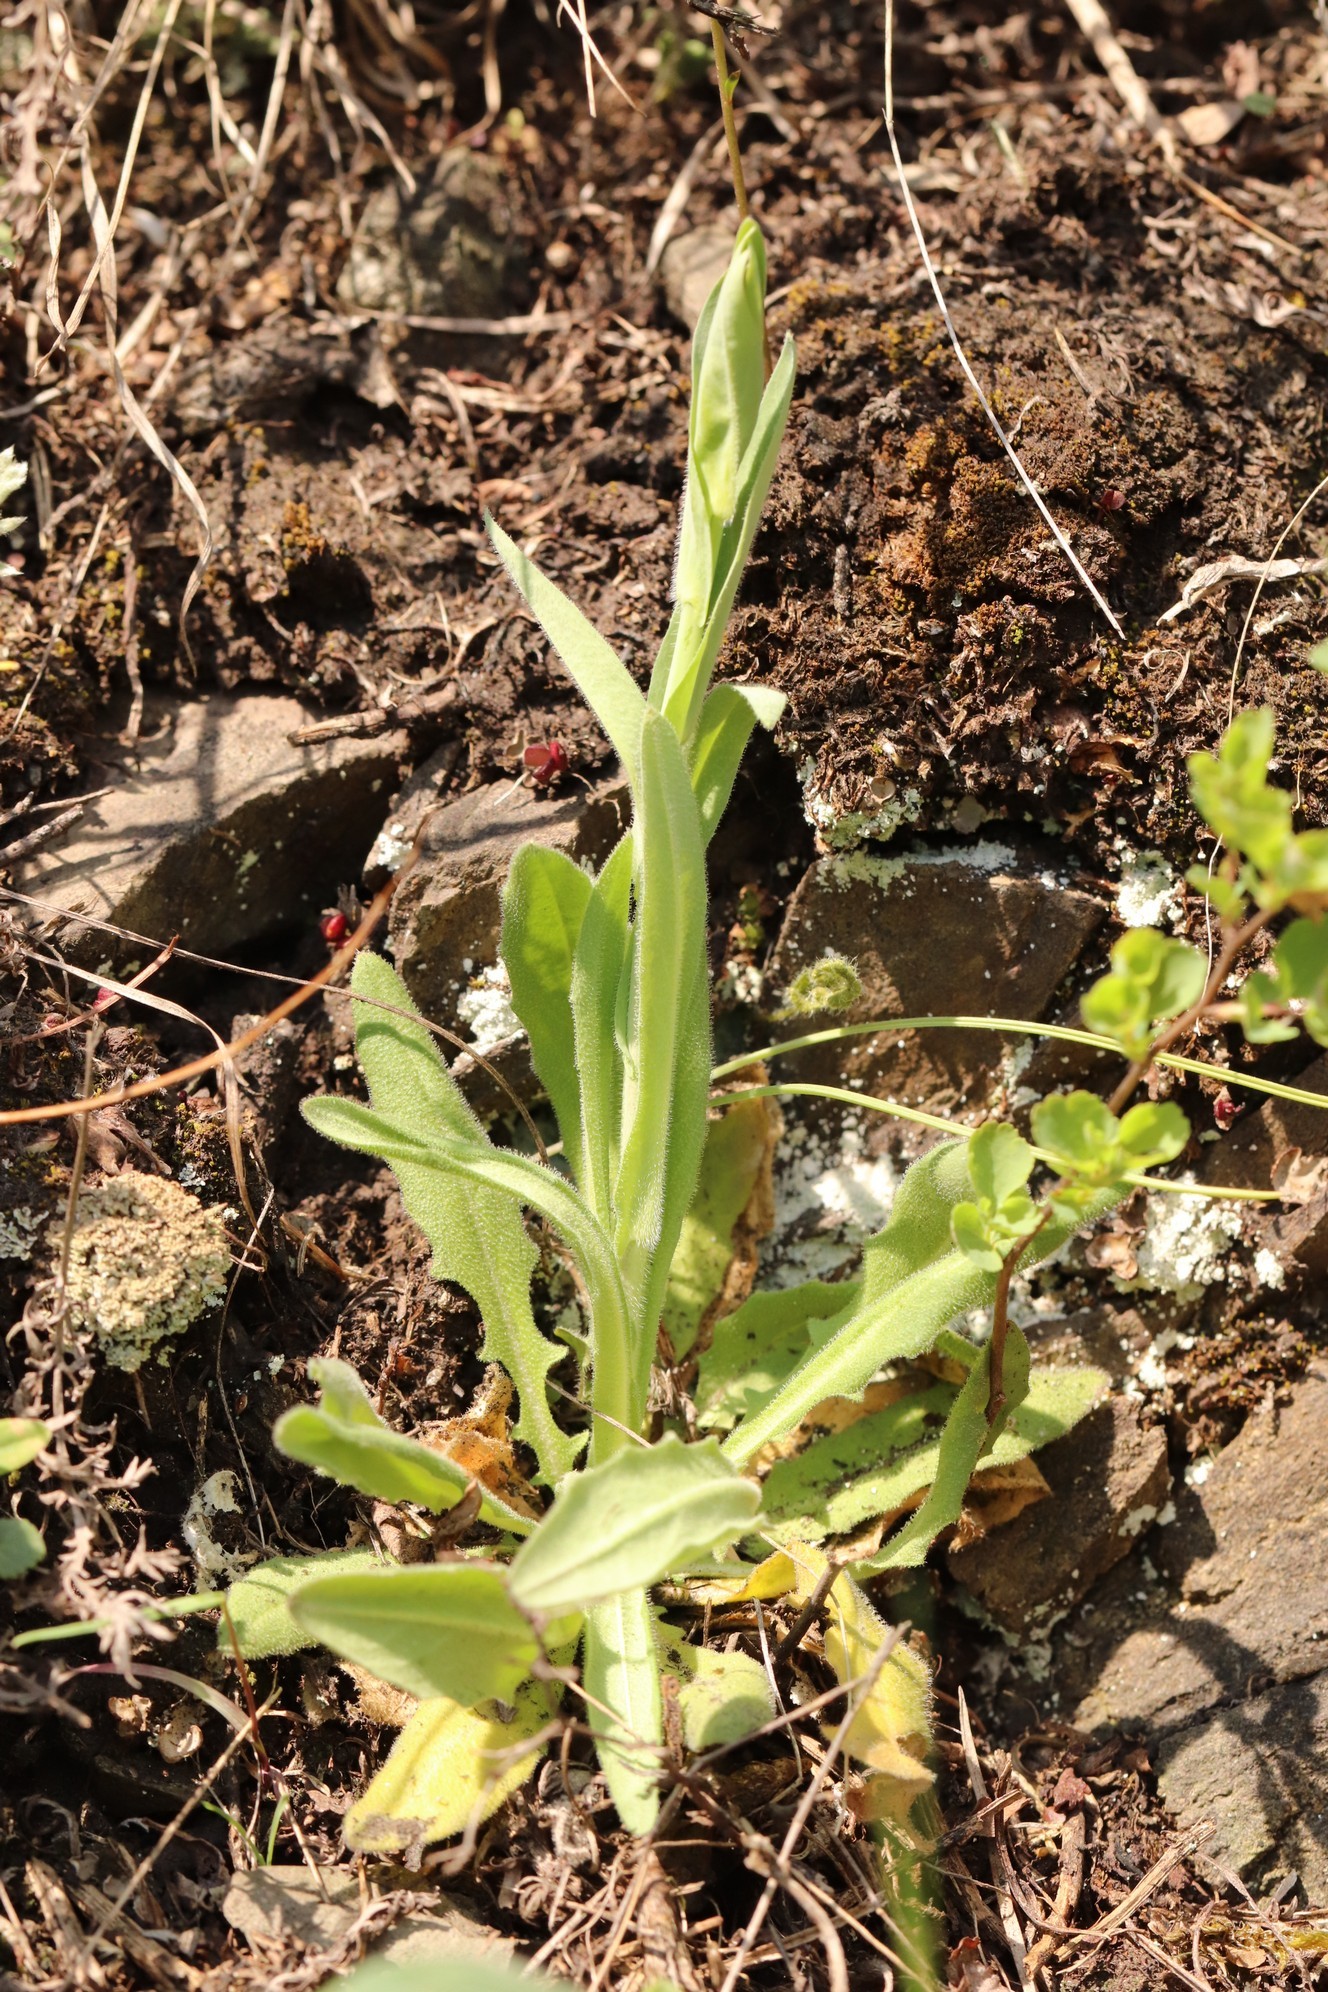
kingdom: Plantae
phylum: Tracheophyta
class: Magnoliopsida
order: Brassicales
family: Brassicaceae
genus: Turritis
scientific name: Turritis glabra
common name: Tower rockcress
